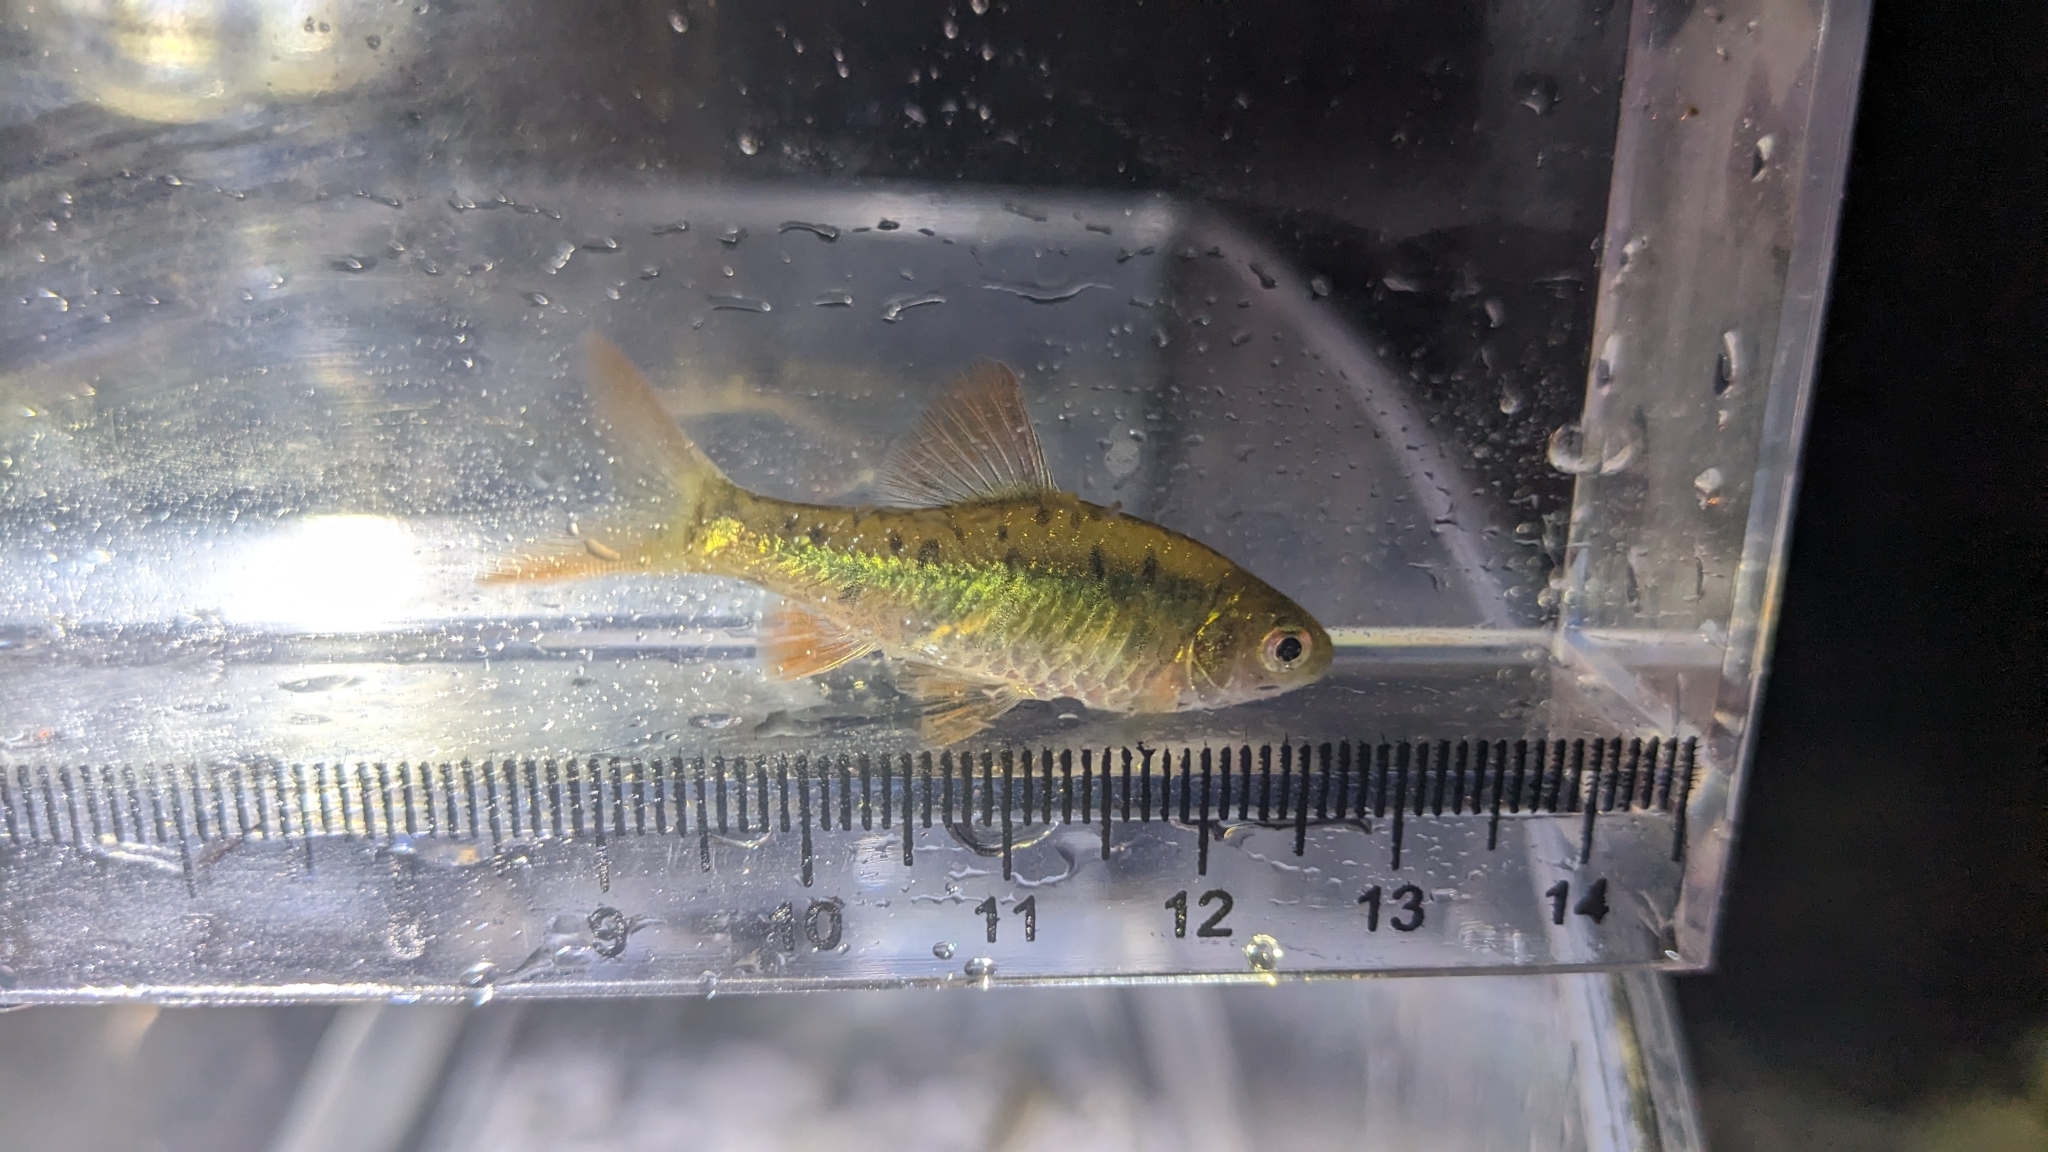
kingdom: Animalia
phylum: Chordata
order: Cypriniformes
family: Cyprinidae
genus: Barbodes
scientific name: Barbodes semifasciolatus
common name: Gold barb
